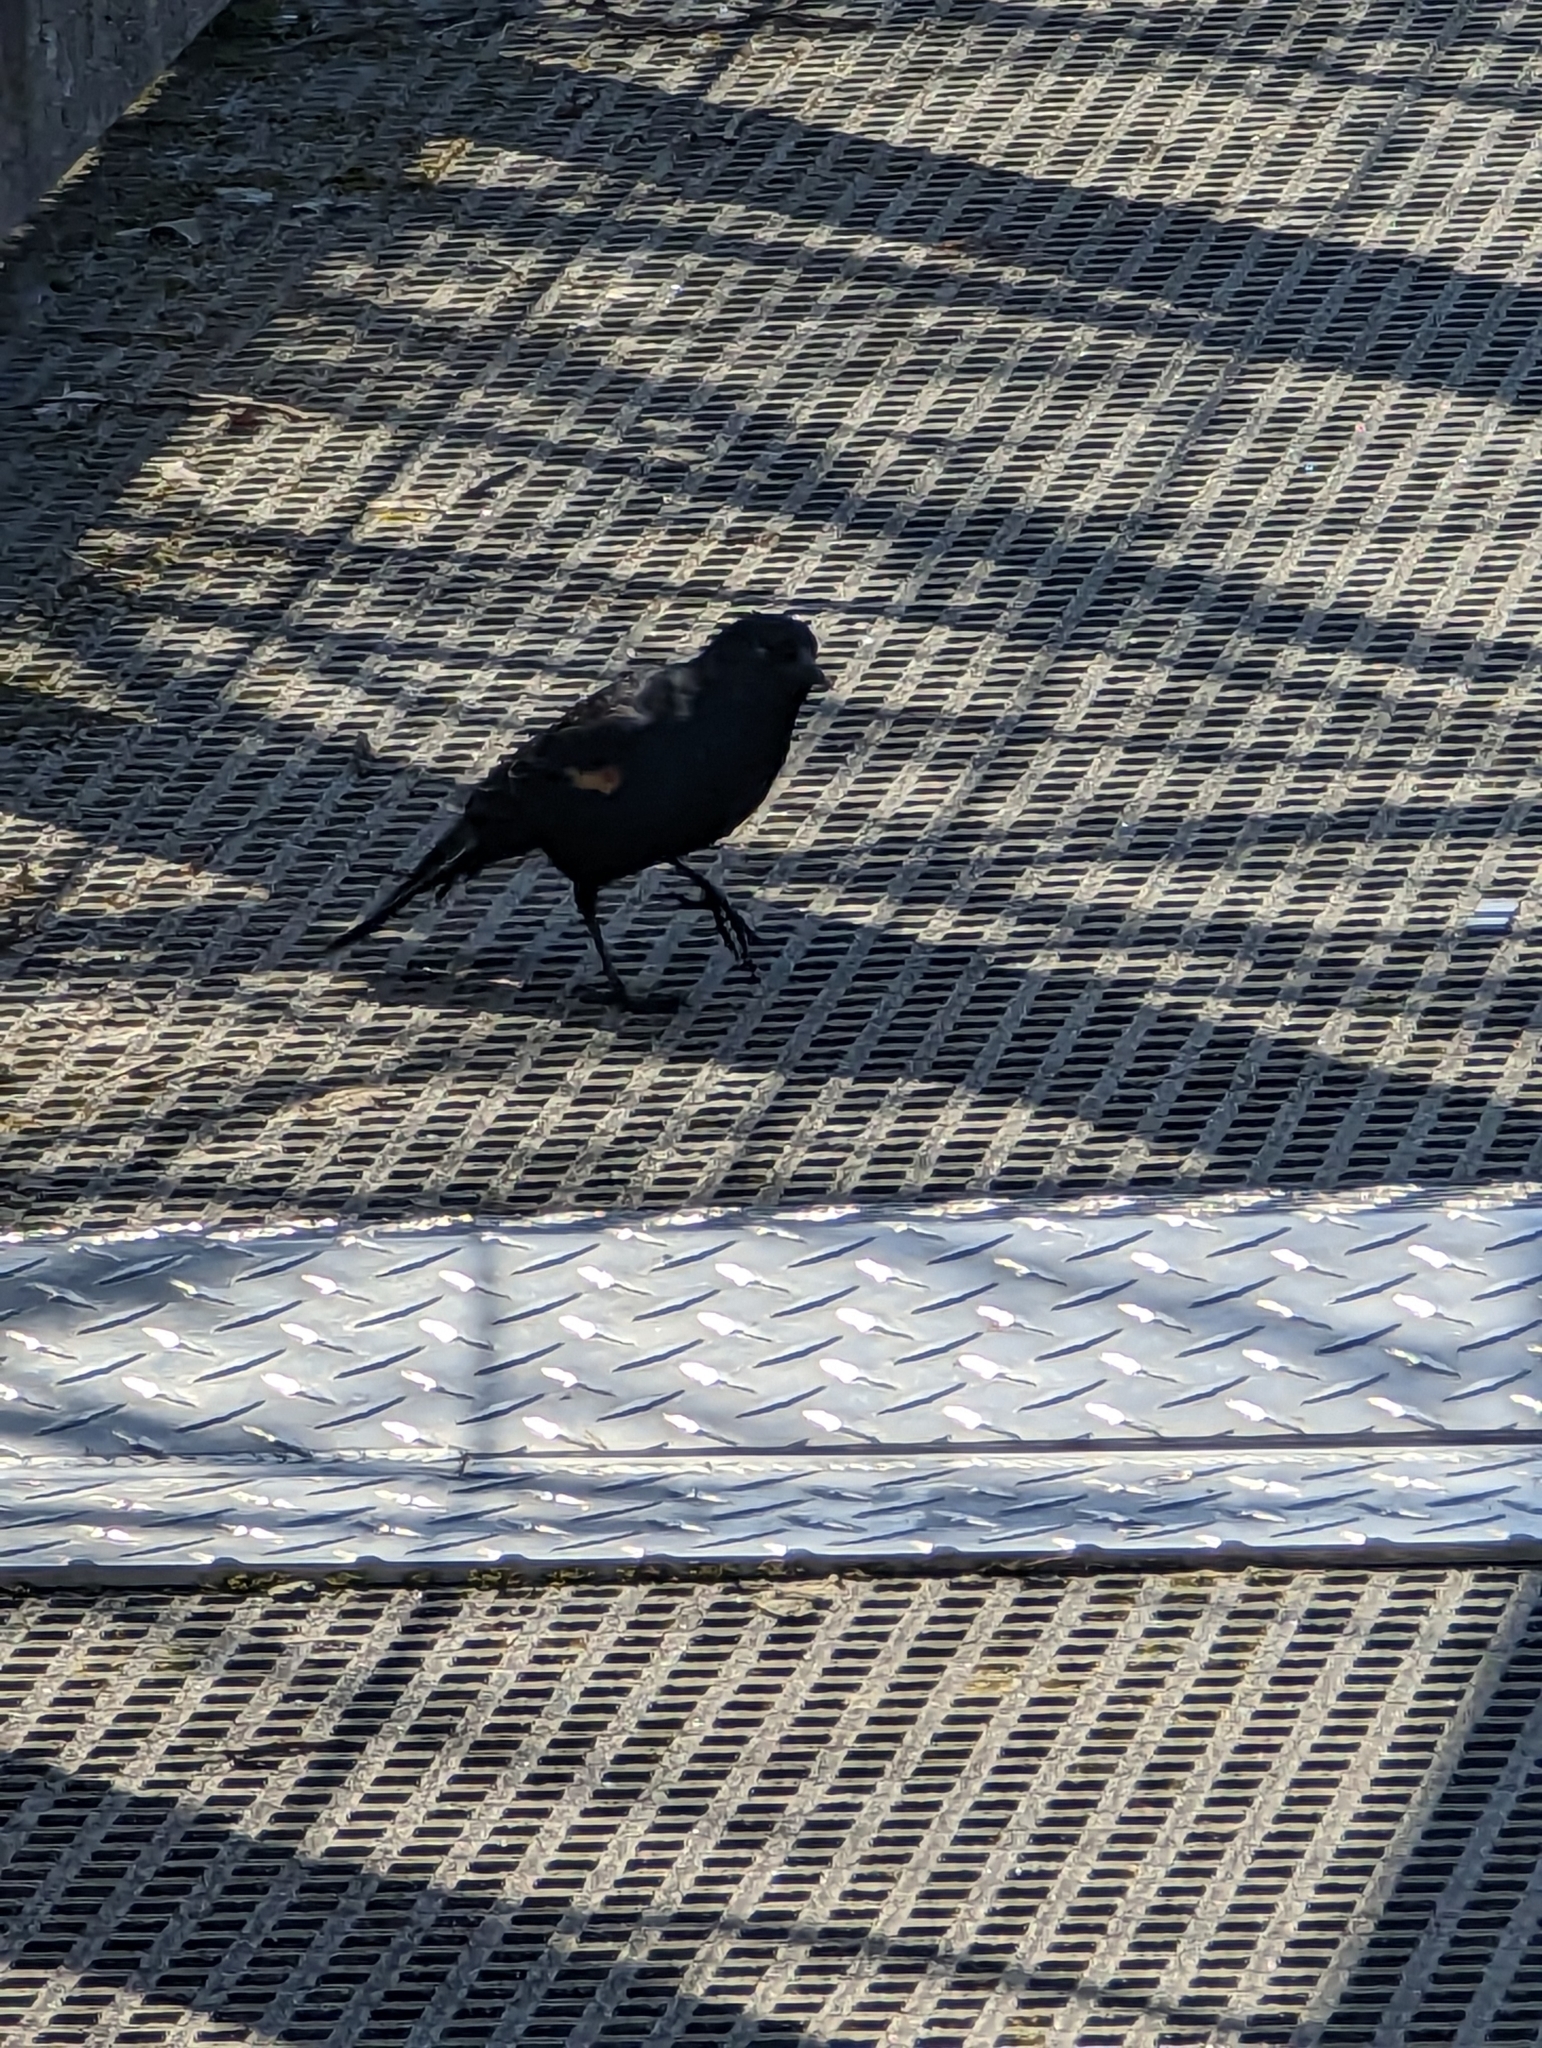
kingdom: Animalia
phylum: Chordata
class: Aves
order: Passeriformes
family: Icteridae
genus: Agelaius
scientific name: Agelaius phoeniceus
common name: Red-winged blackbird
